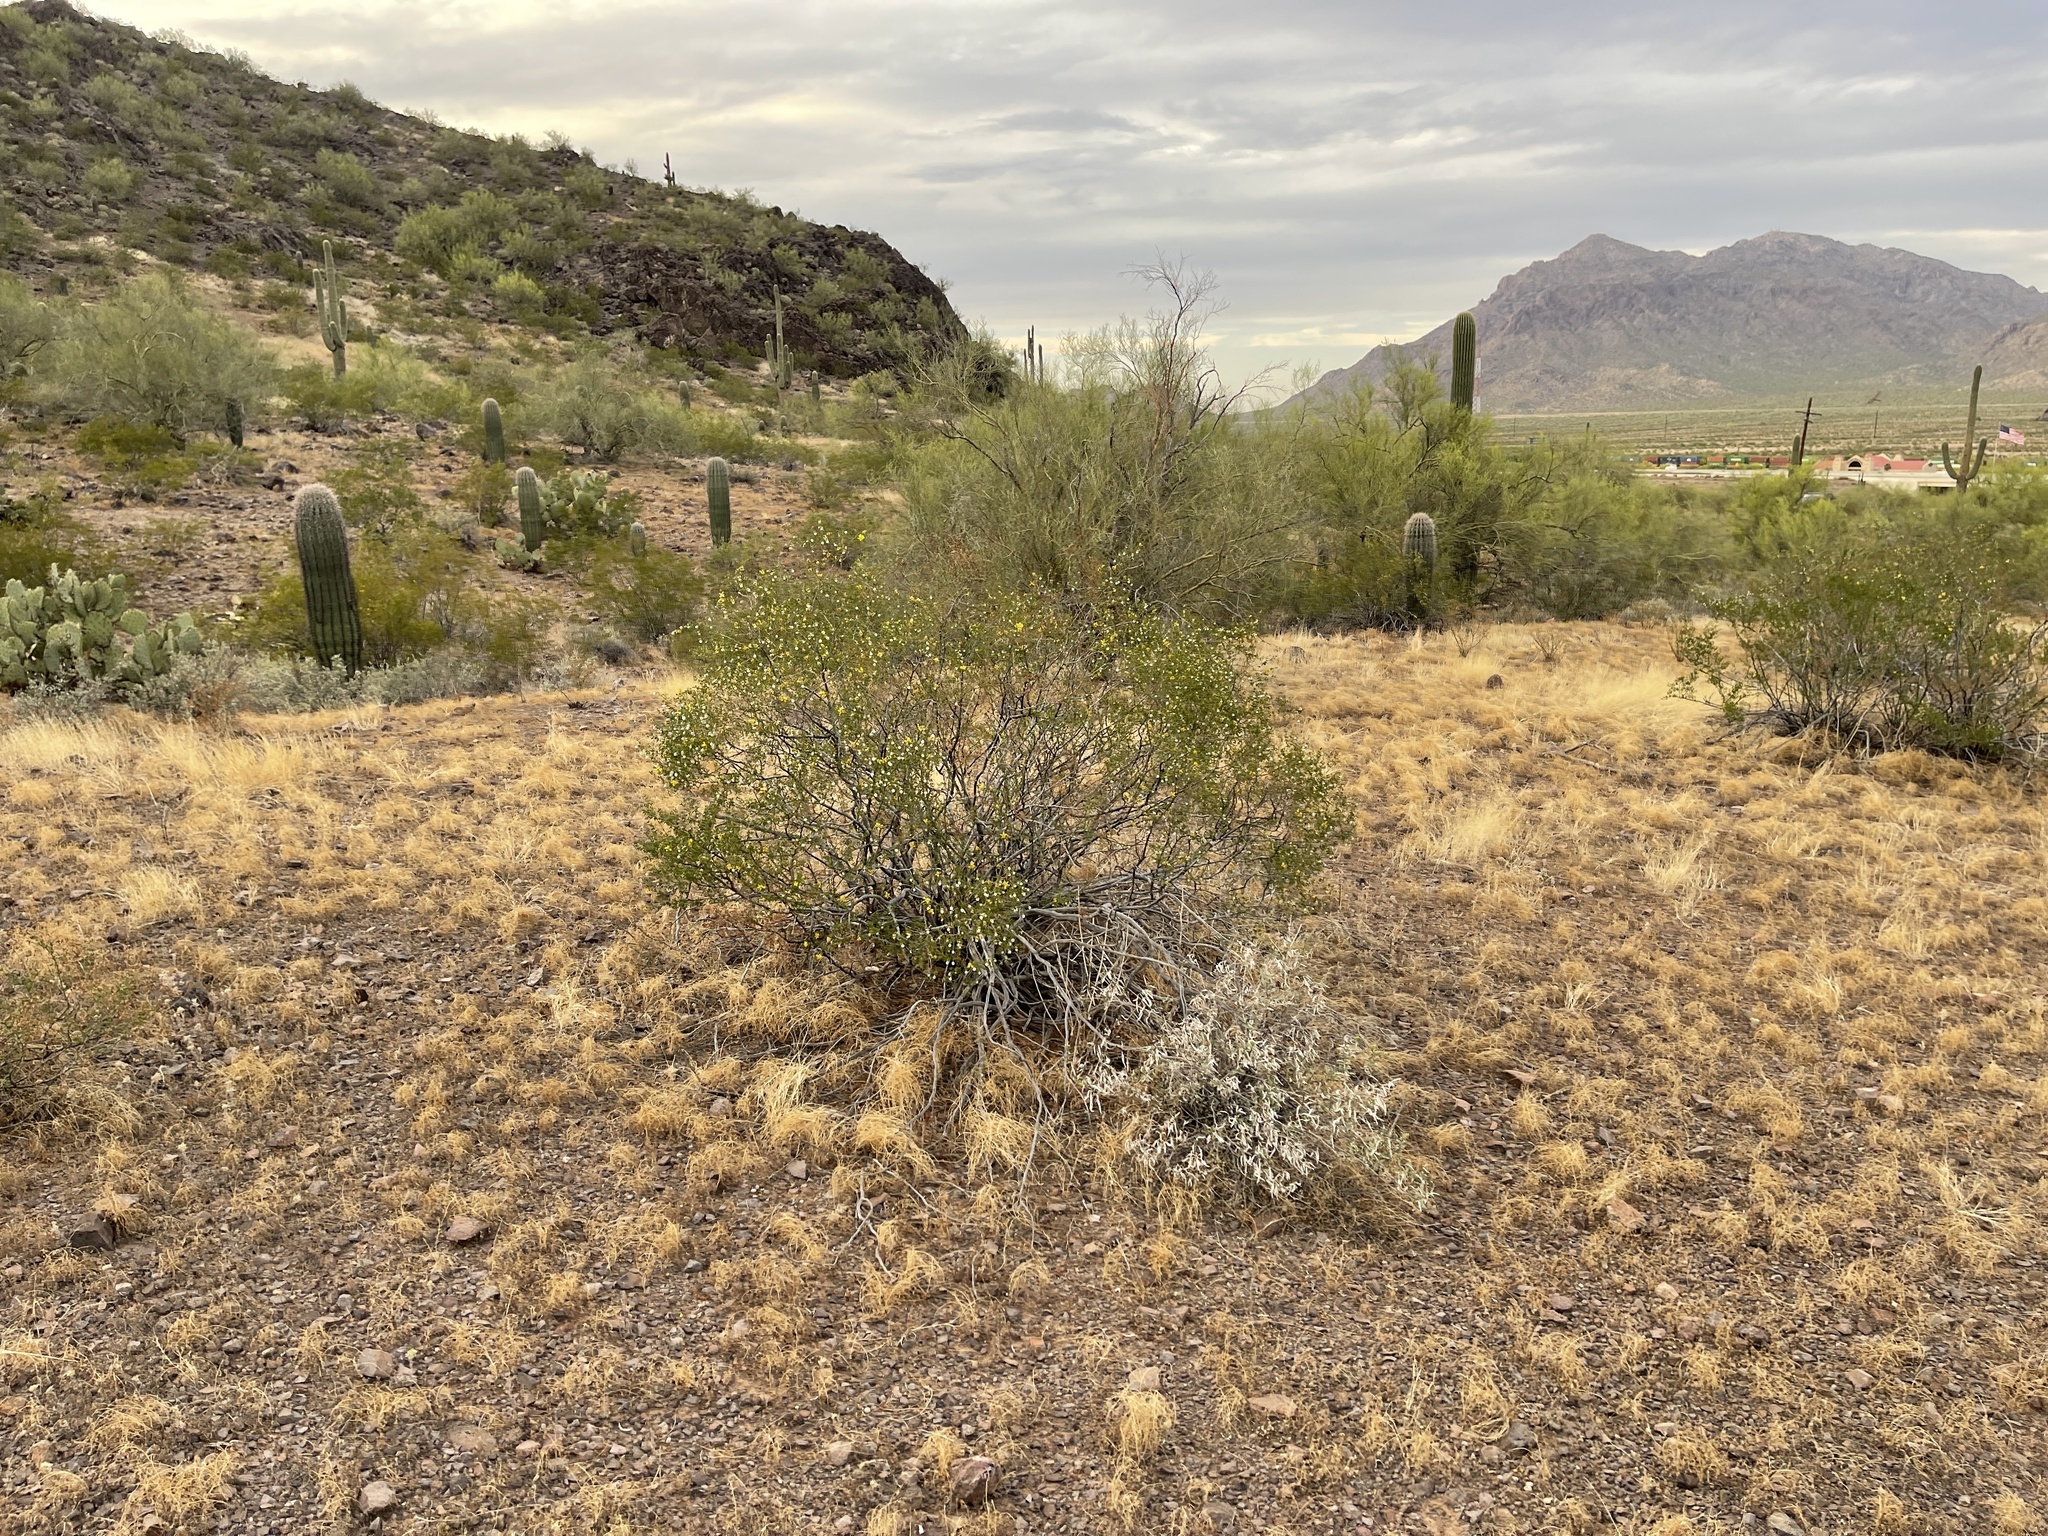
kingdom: Plantae
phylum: Tracheophyta
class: Magnoliopsida
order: Zygophyllales
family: Zygophyllaceae
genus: Larrea
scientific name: Larrea tridentata
